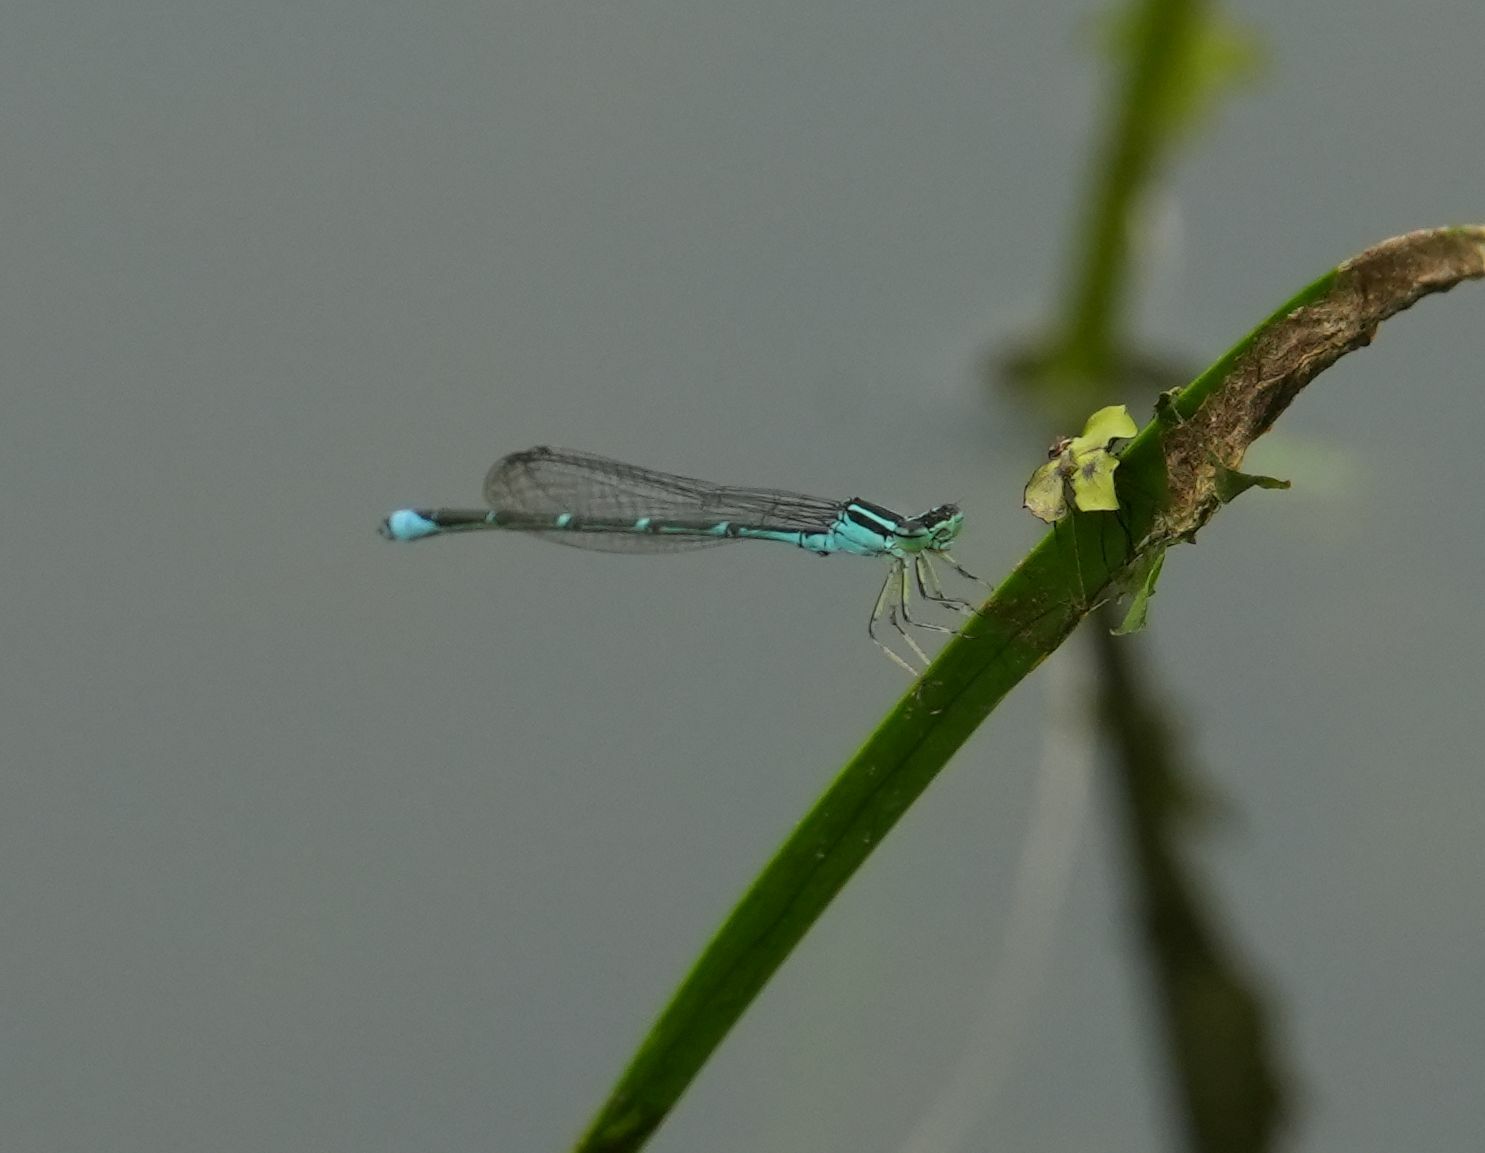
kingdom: Animalia
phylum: Arthropoda
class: Insecta
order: Odonata
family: Coenagrionidae
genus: Enallagma
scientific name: Enallagma exsulans
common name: Stream bluet
